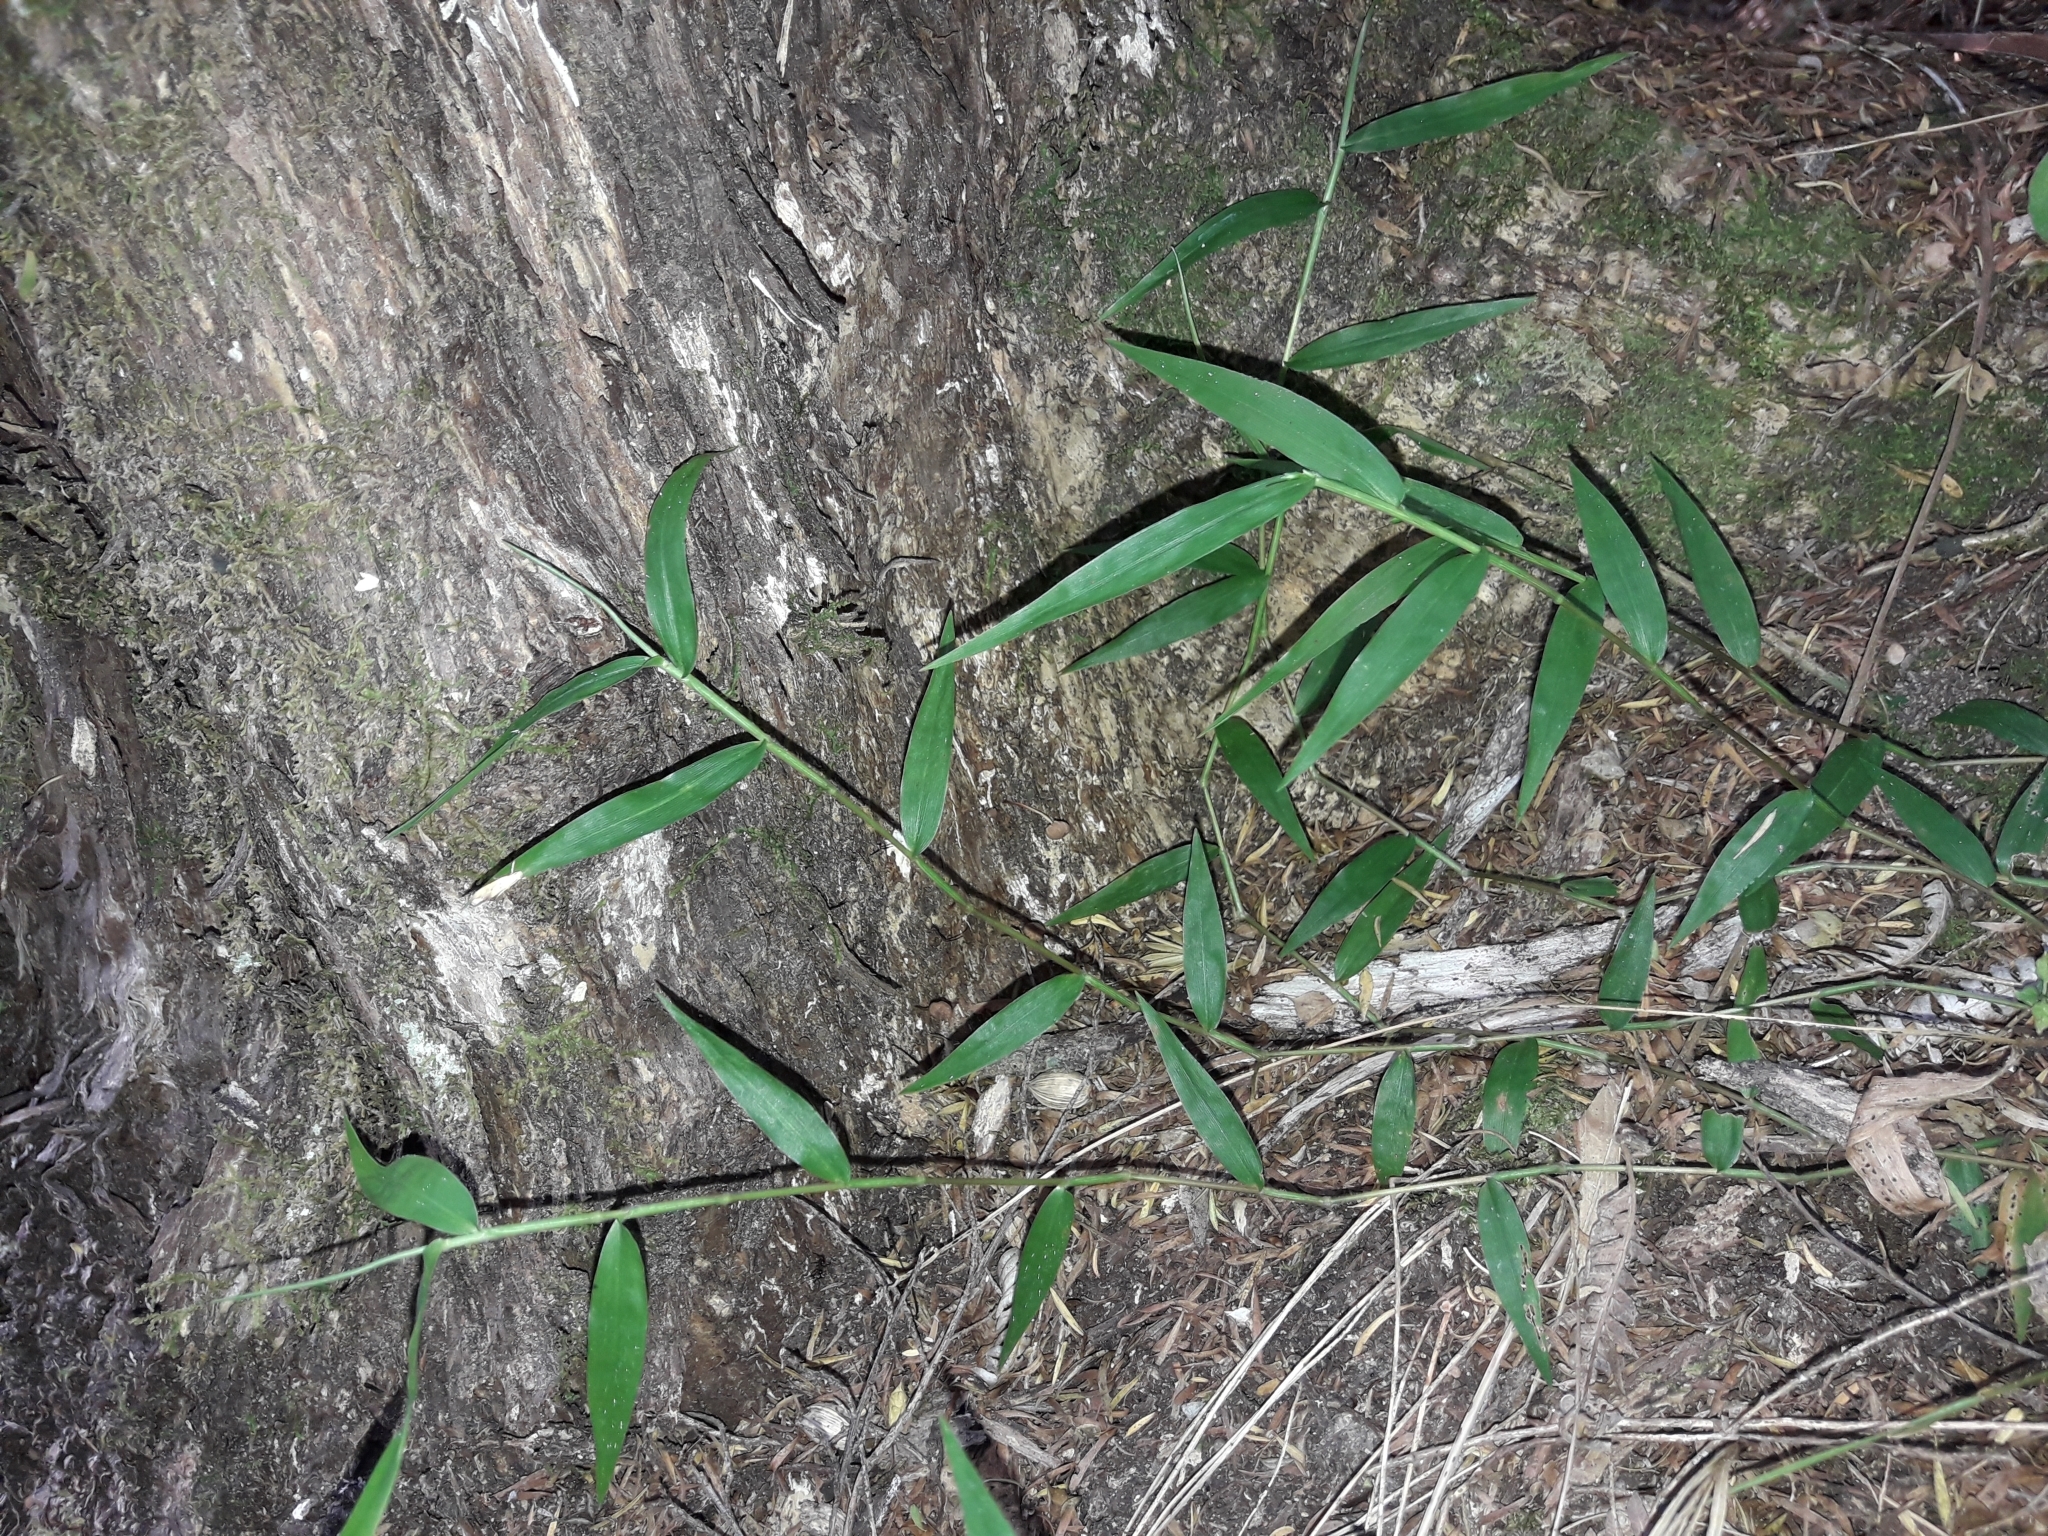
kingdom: Plantae
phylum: Tracheophyta
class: Liliopsida
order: Poales
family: Poaceae
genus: Oplismenus
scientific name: Oplismenus hirtellus
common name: Basketgrass
